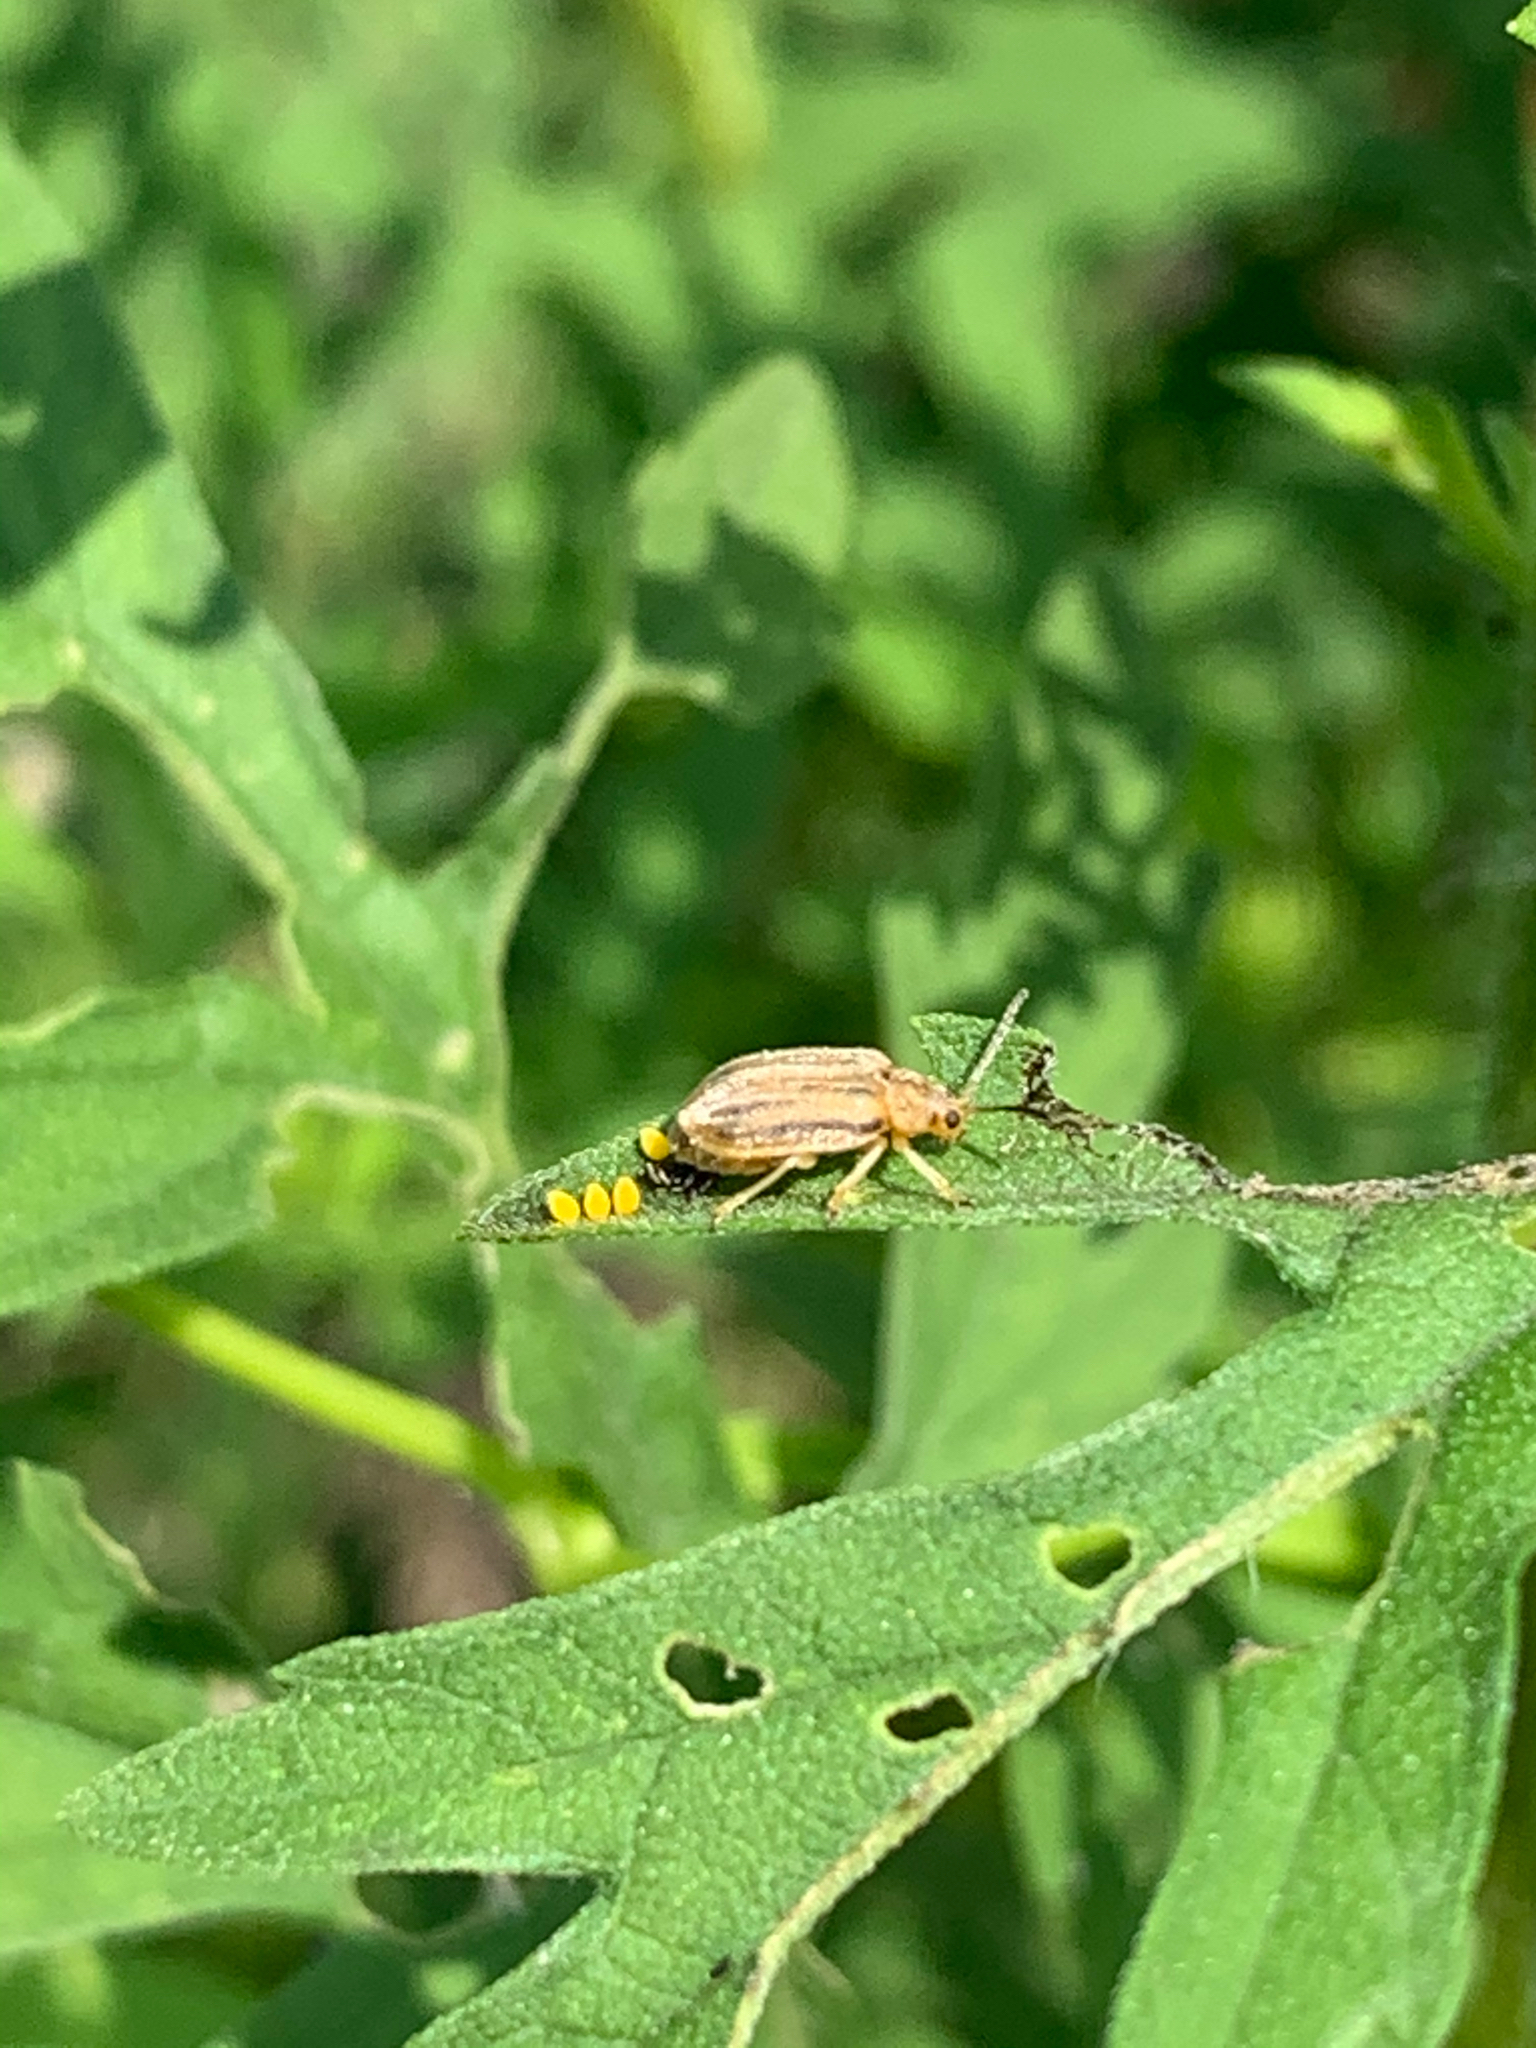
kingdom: Animalia
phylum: Arthropoda
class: Insecta
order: Coleoptera
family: Chrysomelidae
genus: Ophraella
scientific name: Ophraella
